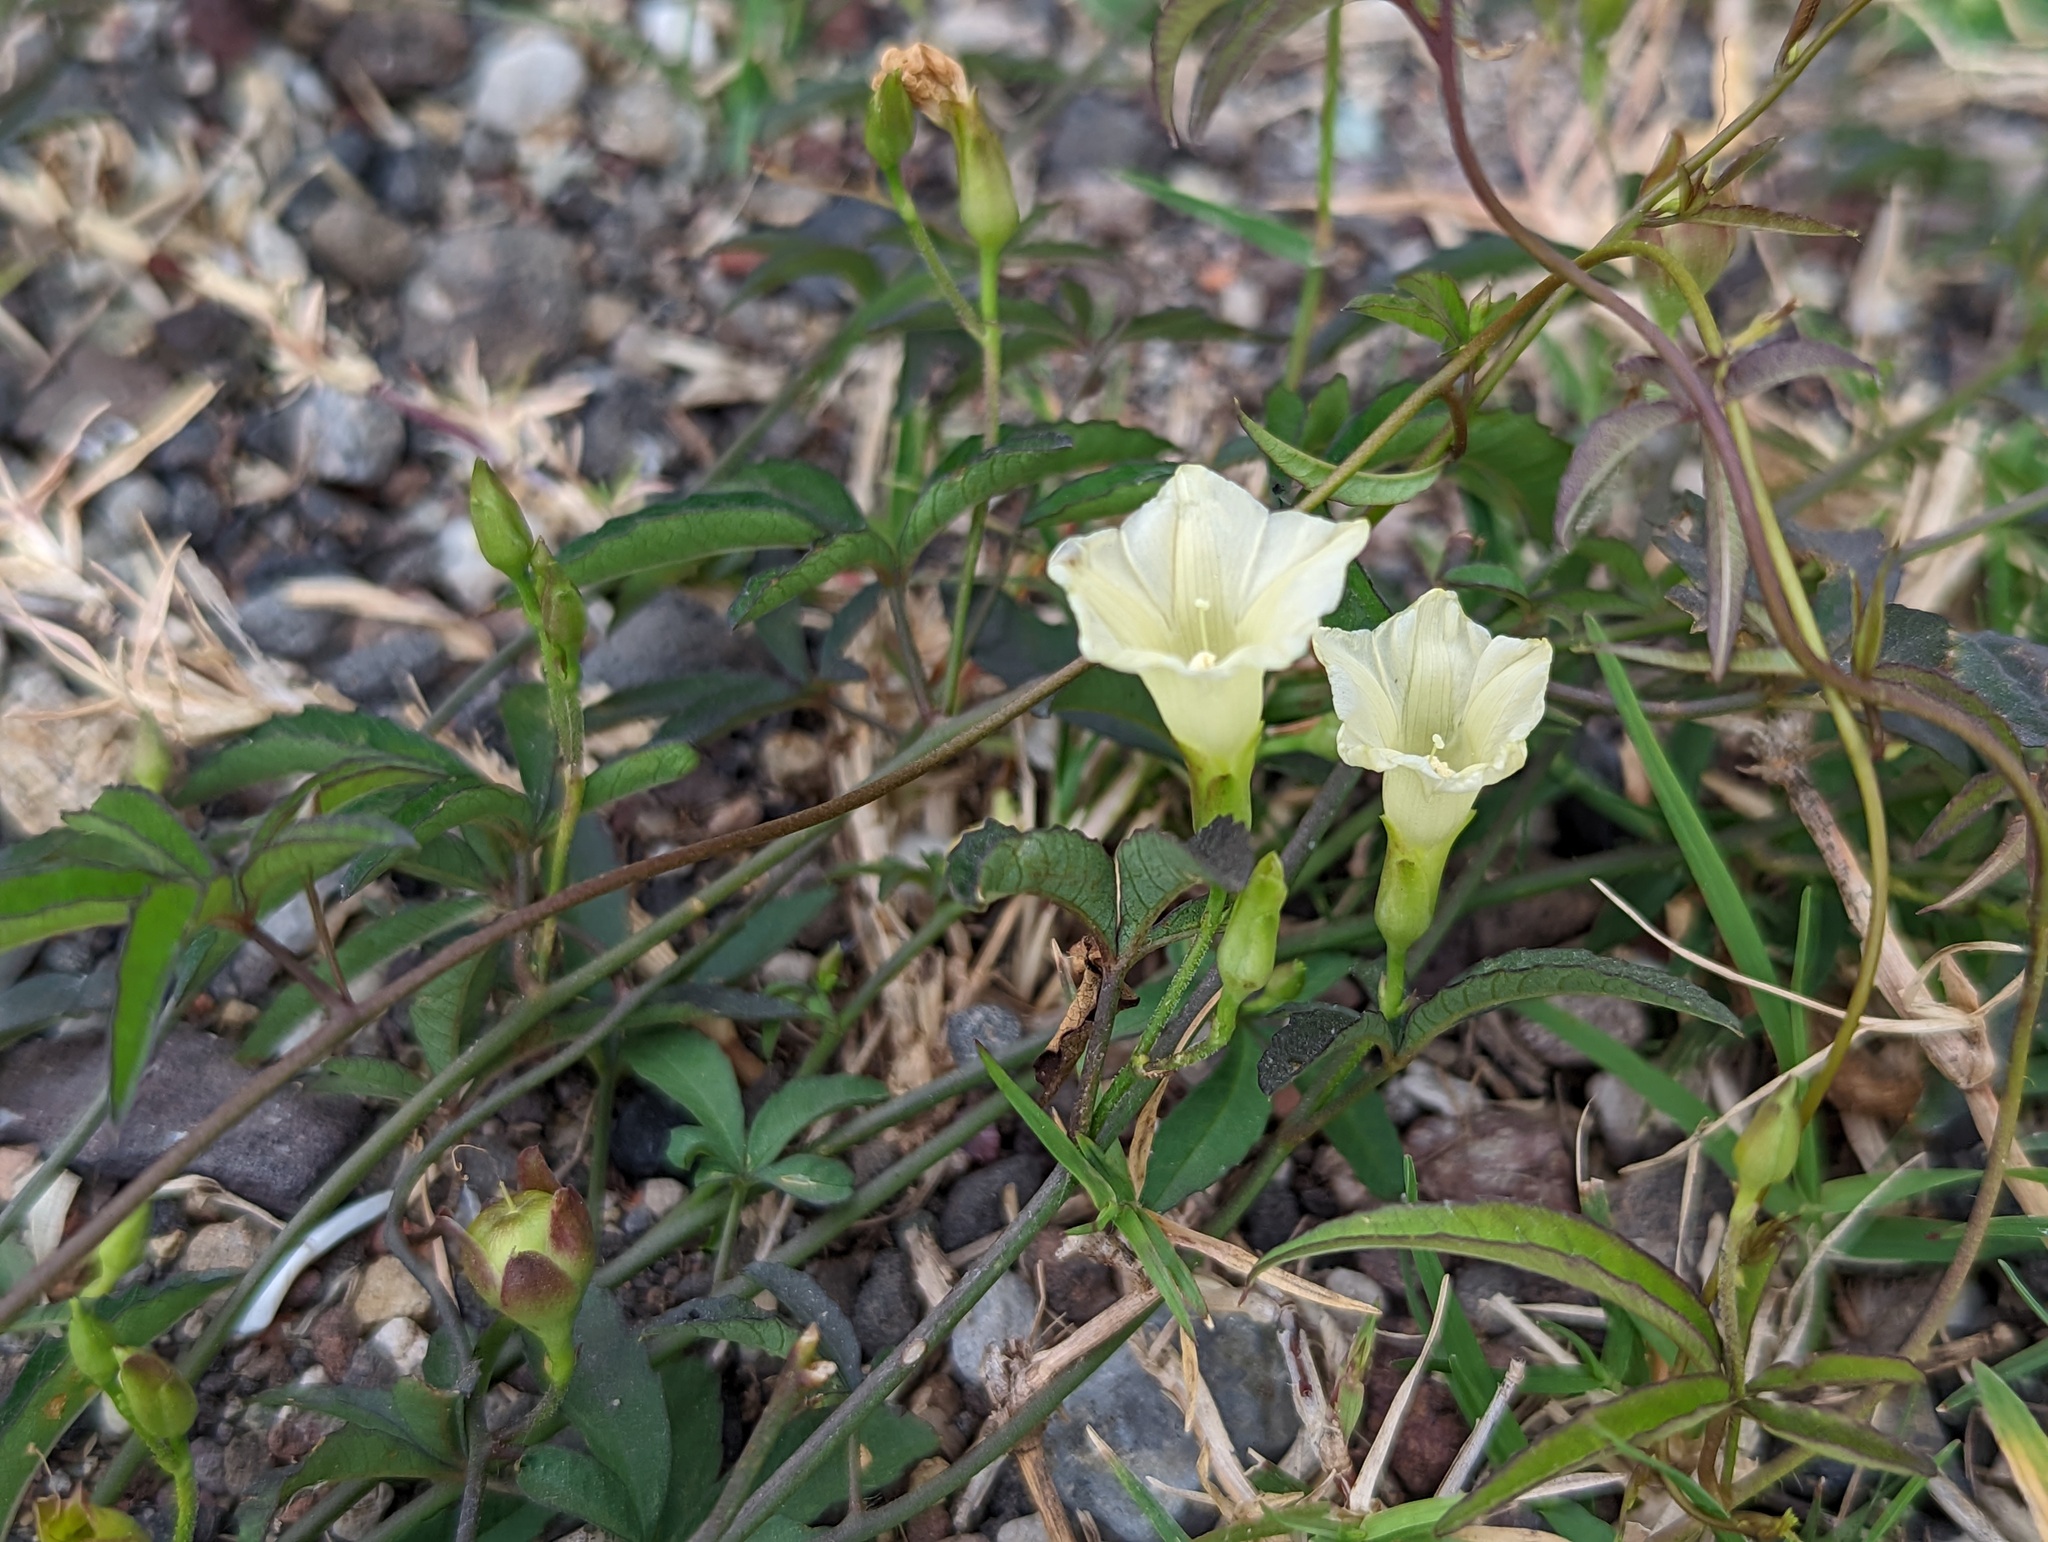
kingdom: Plantae
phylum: Tracheophyta
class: Magnoliopsida
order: Solanales
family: Convolvulaceae
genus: Distimake
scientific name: Distimake quinquefolius
